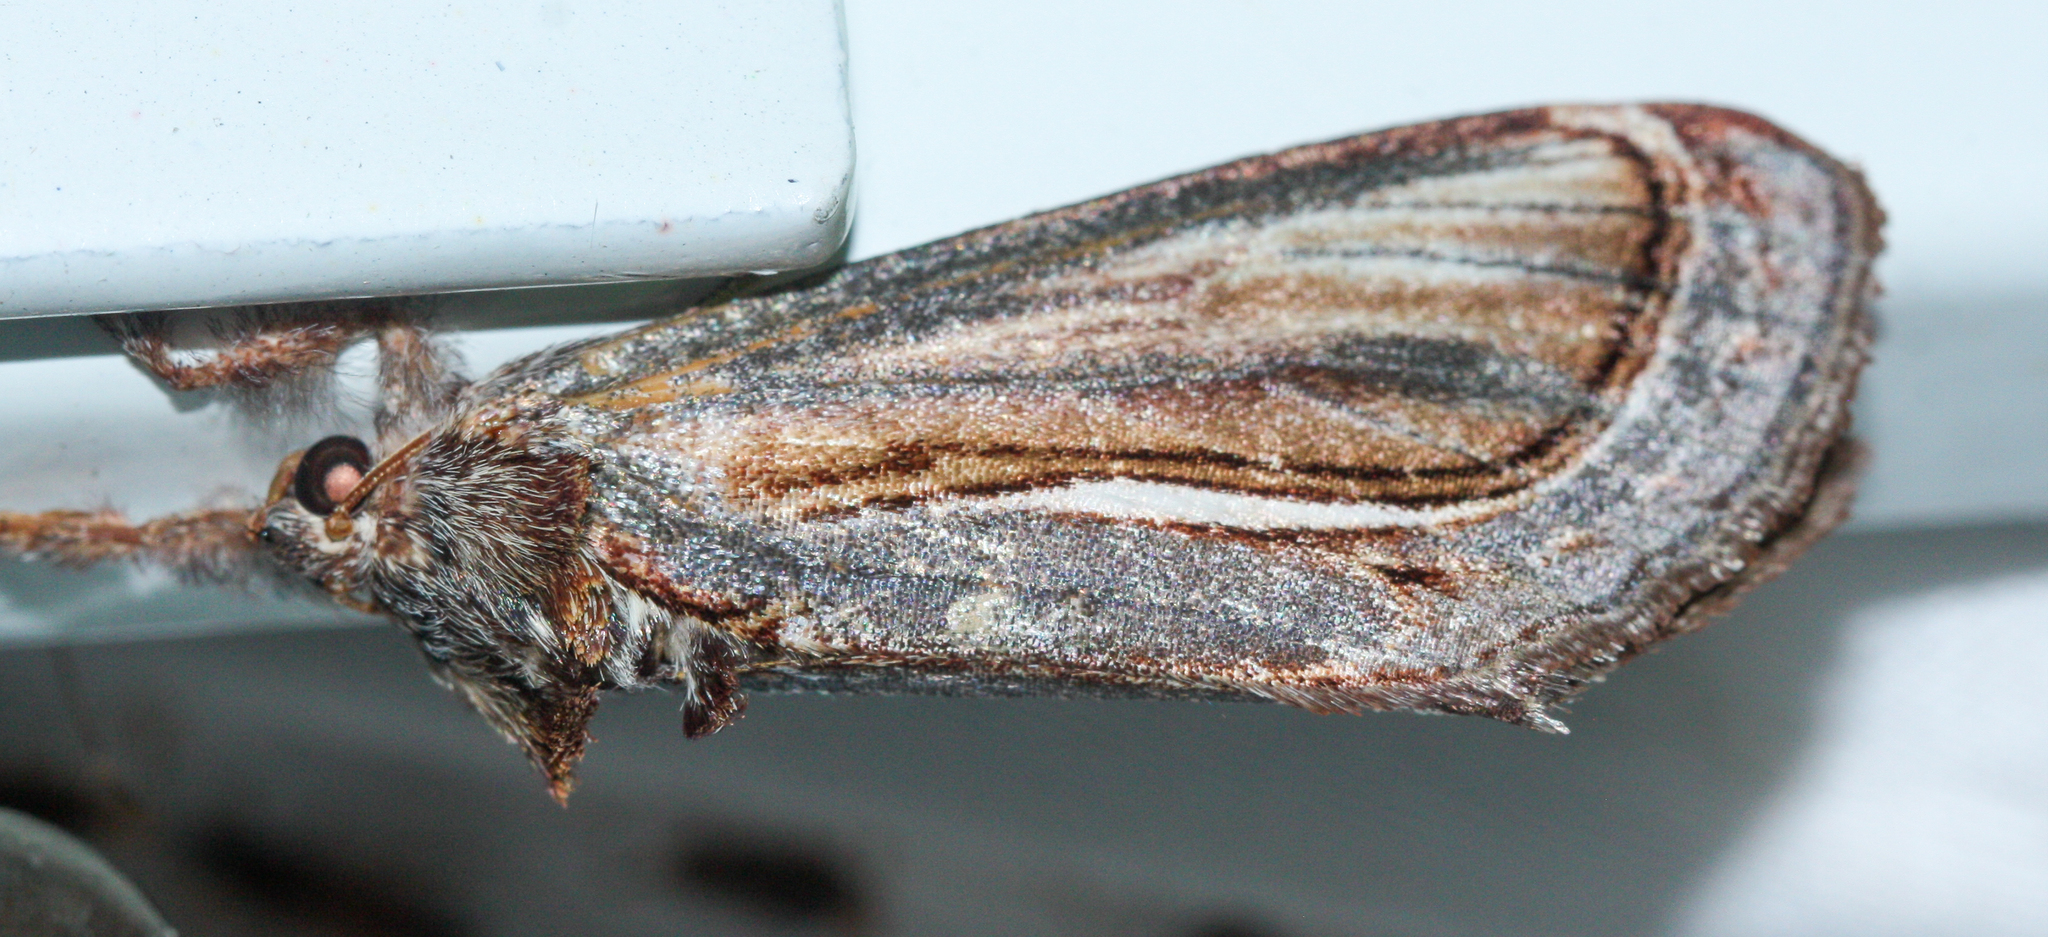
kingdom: Animalia
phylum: Arthropoda
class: Insecta
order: Lepidoptera
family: Noctuidae
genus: Gerrodes
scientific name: Gerrodes minatea
